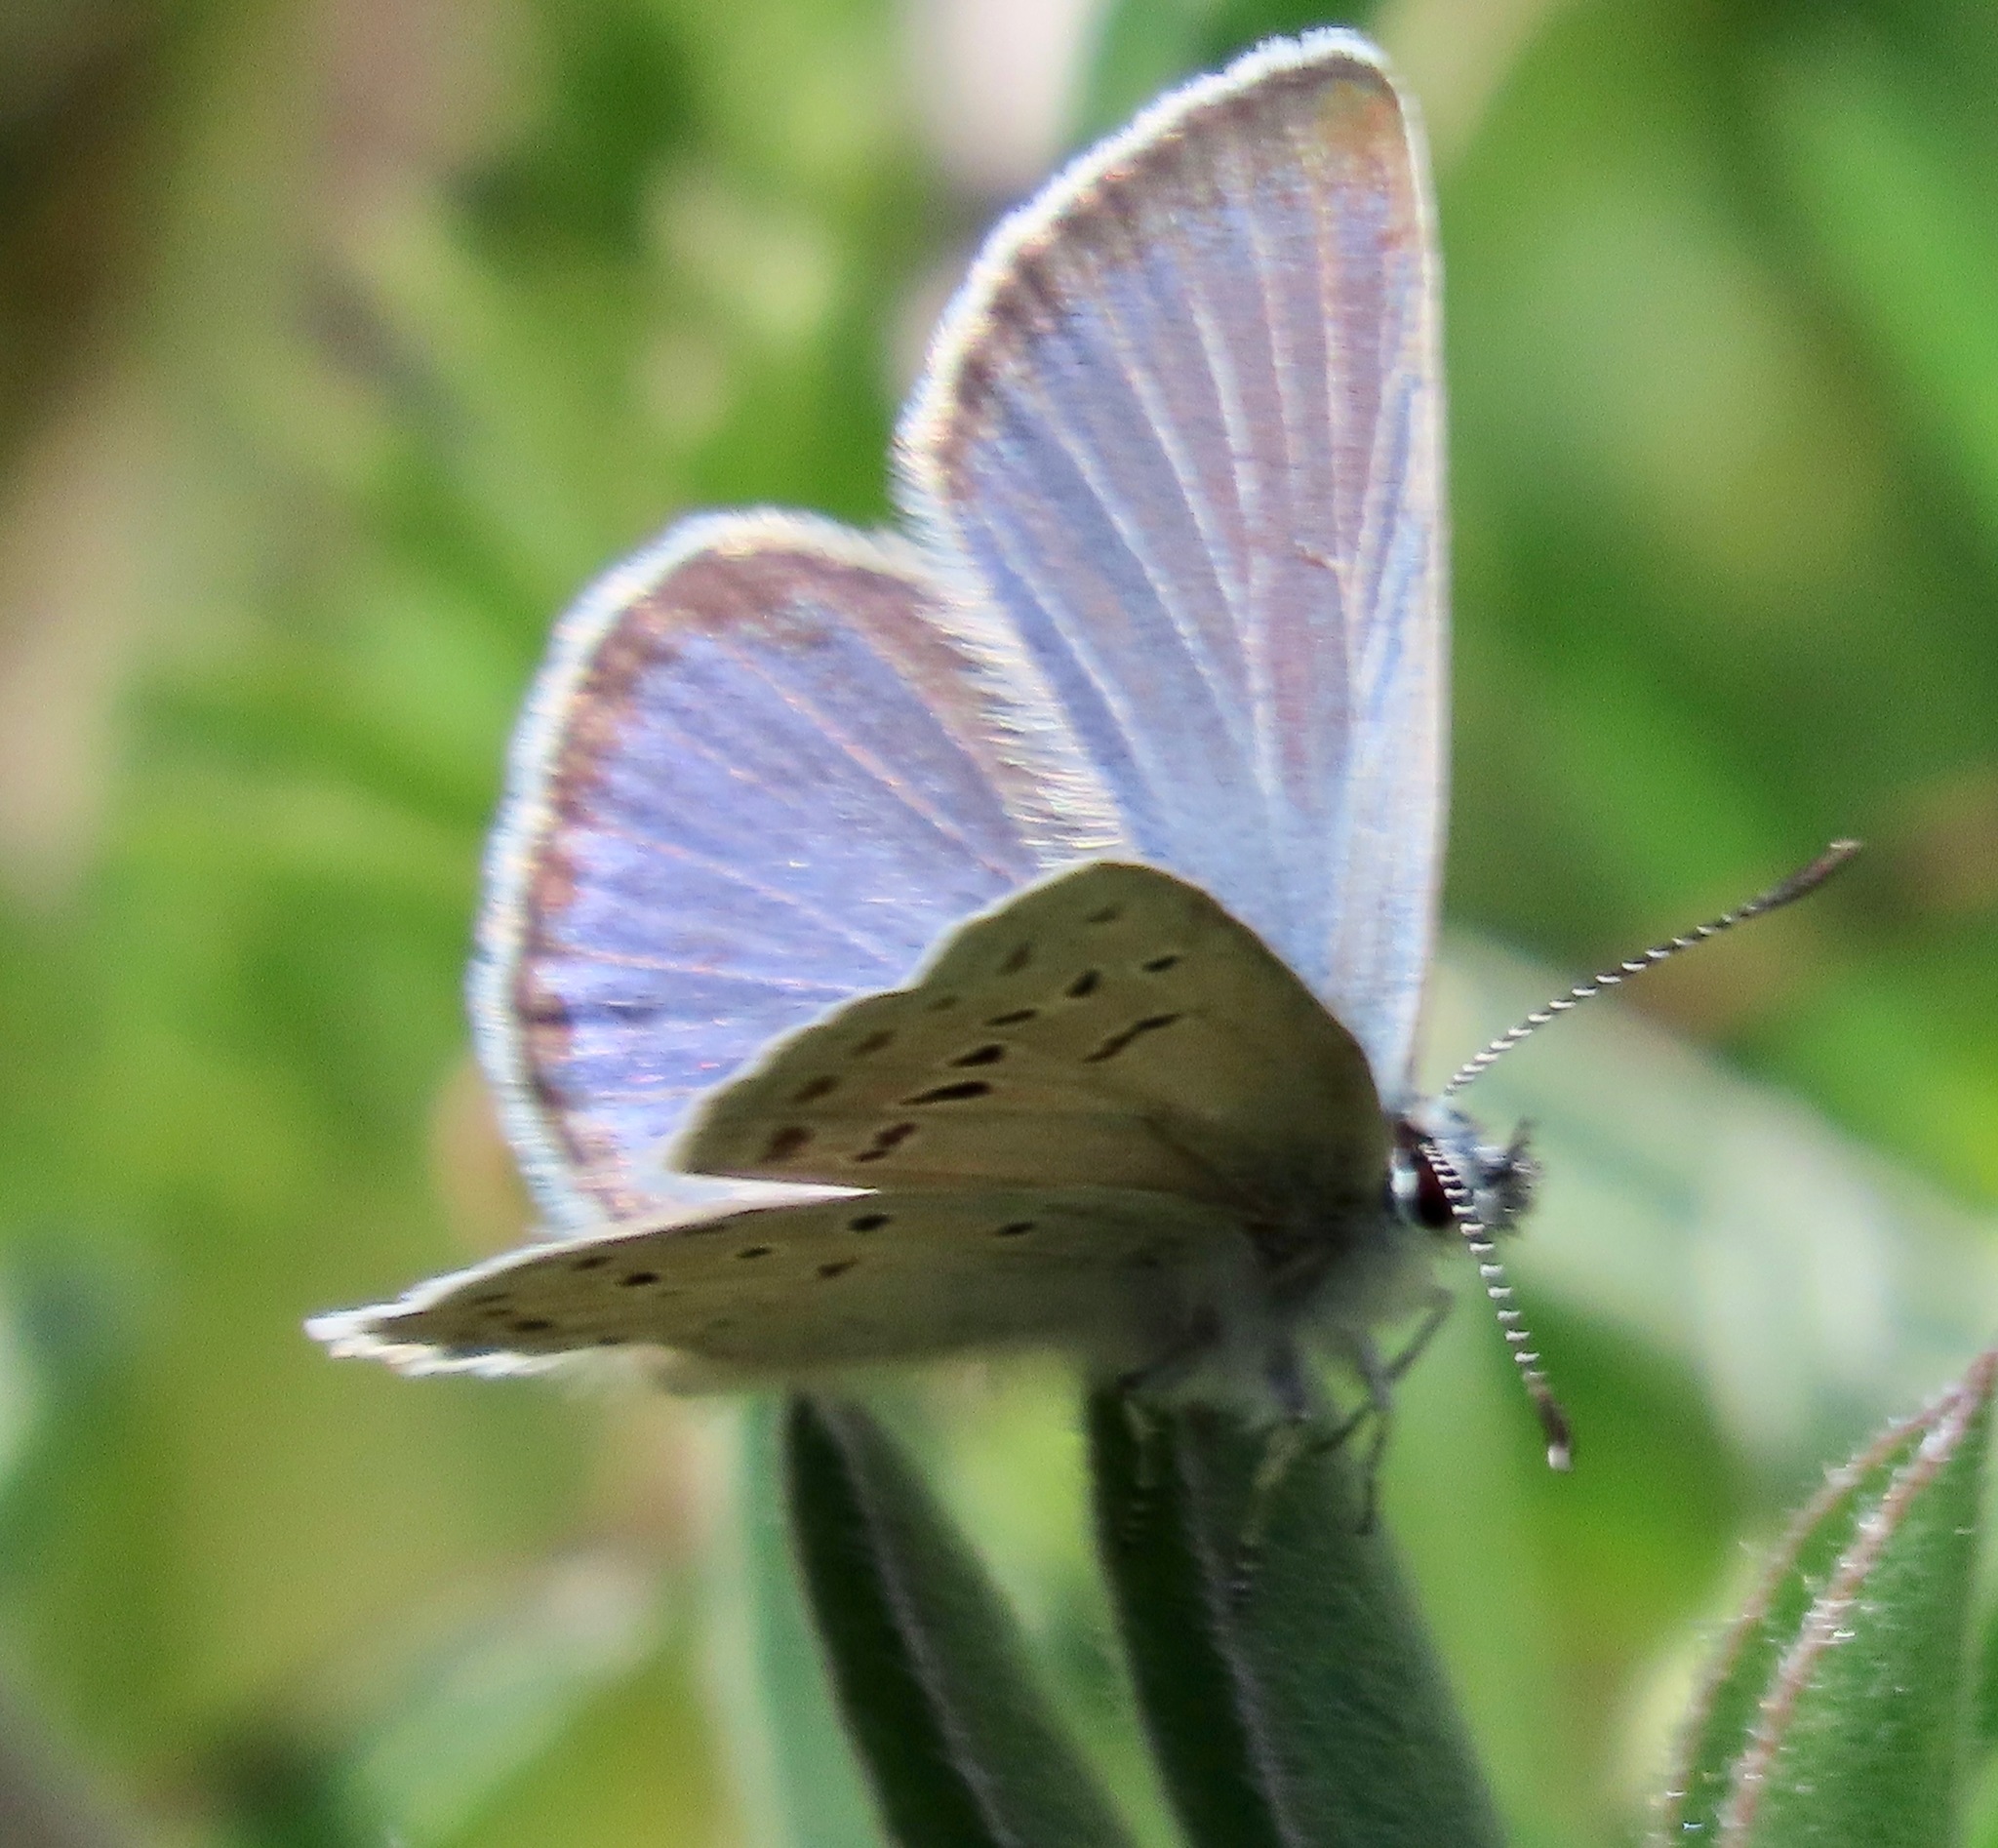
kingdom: Animalia
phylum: Arthropoda
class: Insecta
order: Lepidoptera
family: Lycaenidae
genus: Icaricia
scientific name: Icaricia icarioides
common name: Boisduval's blue
